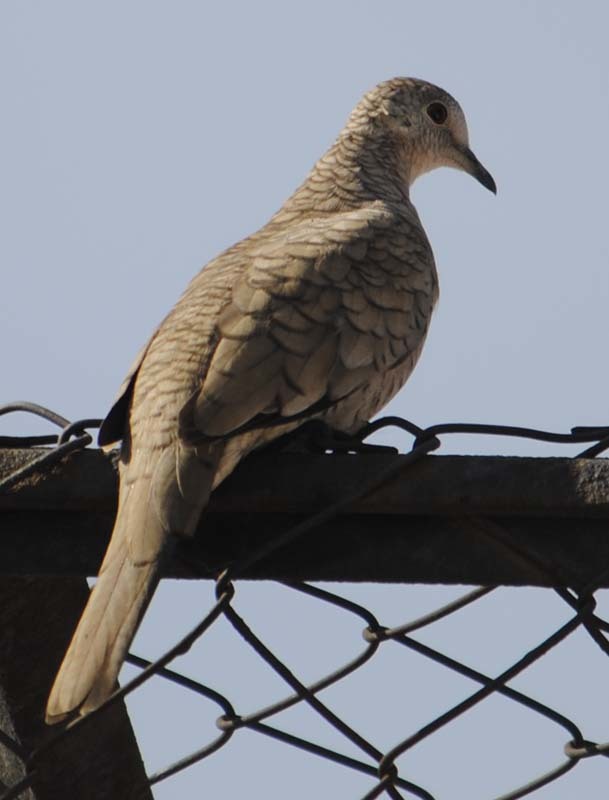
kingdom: Animalia
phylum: Chordata
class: Aves
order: Columbiformes
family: Columbidae
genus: Columbina
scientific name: Columbina inca
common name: Inca dove
